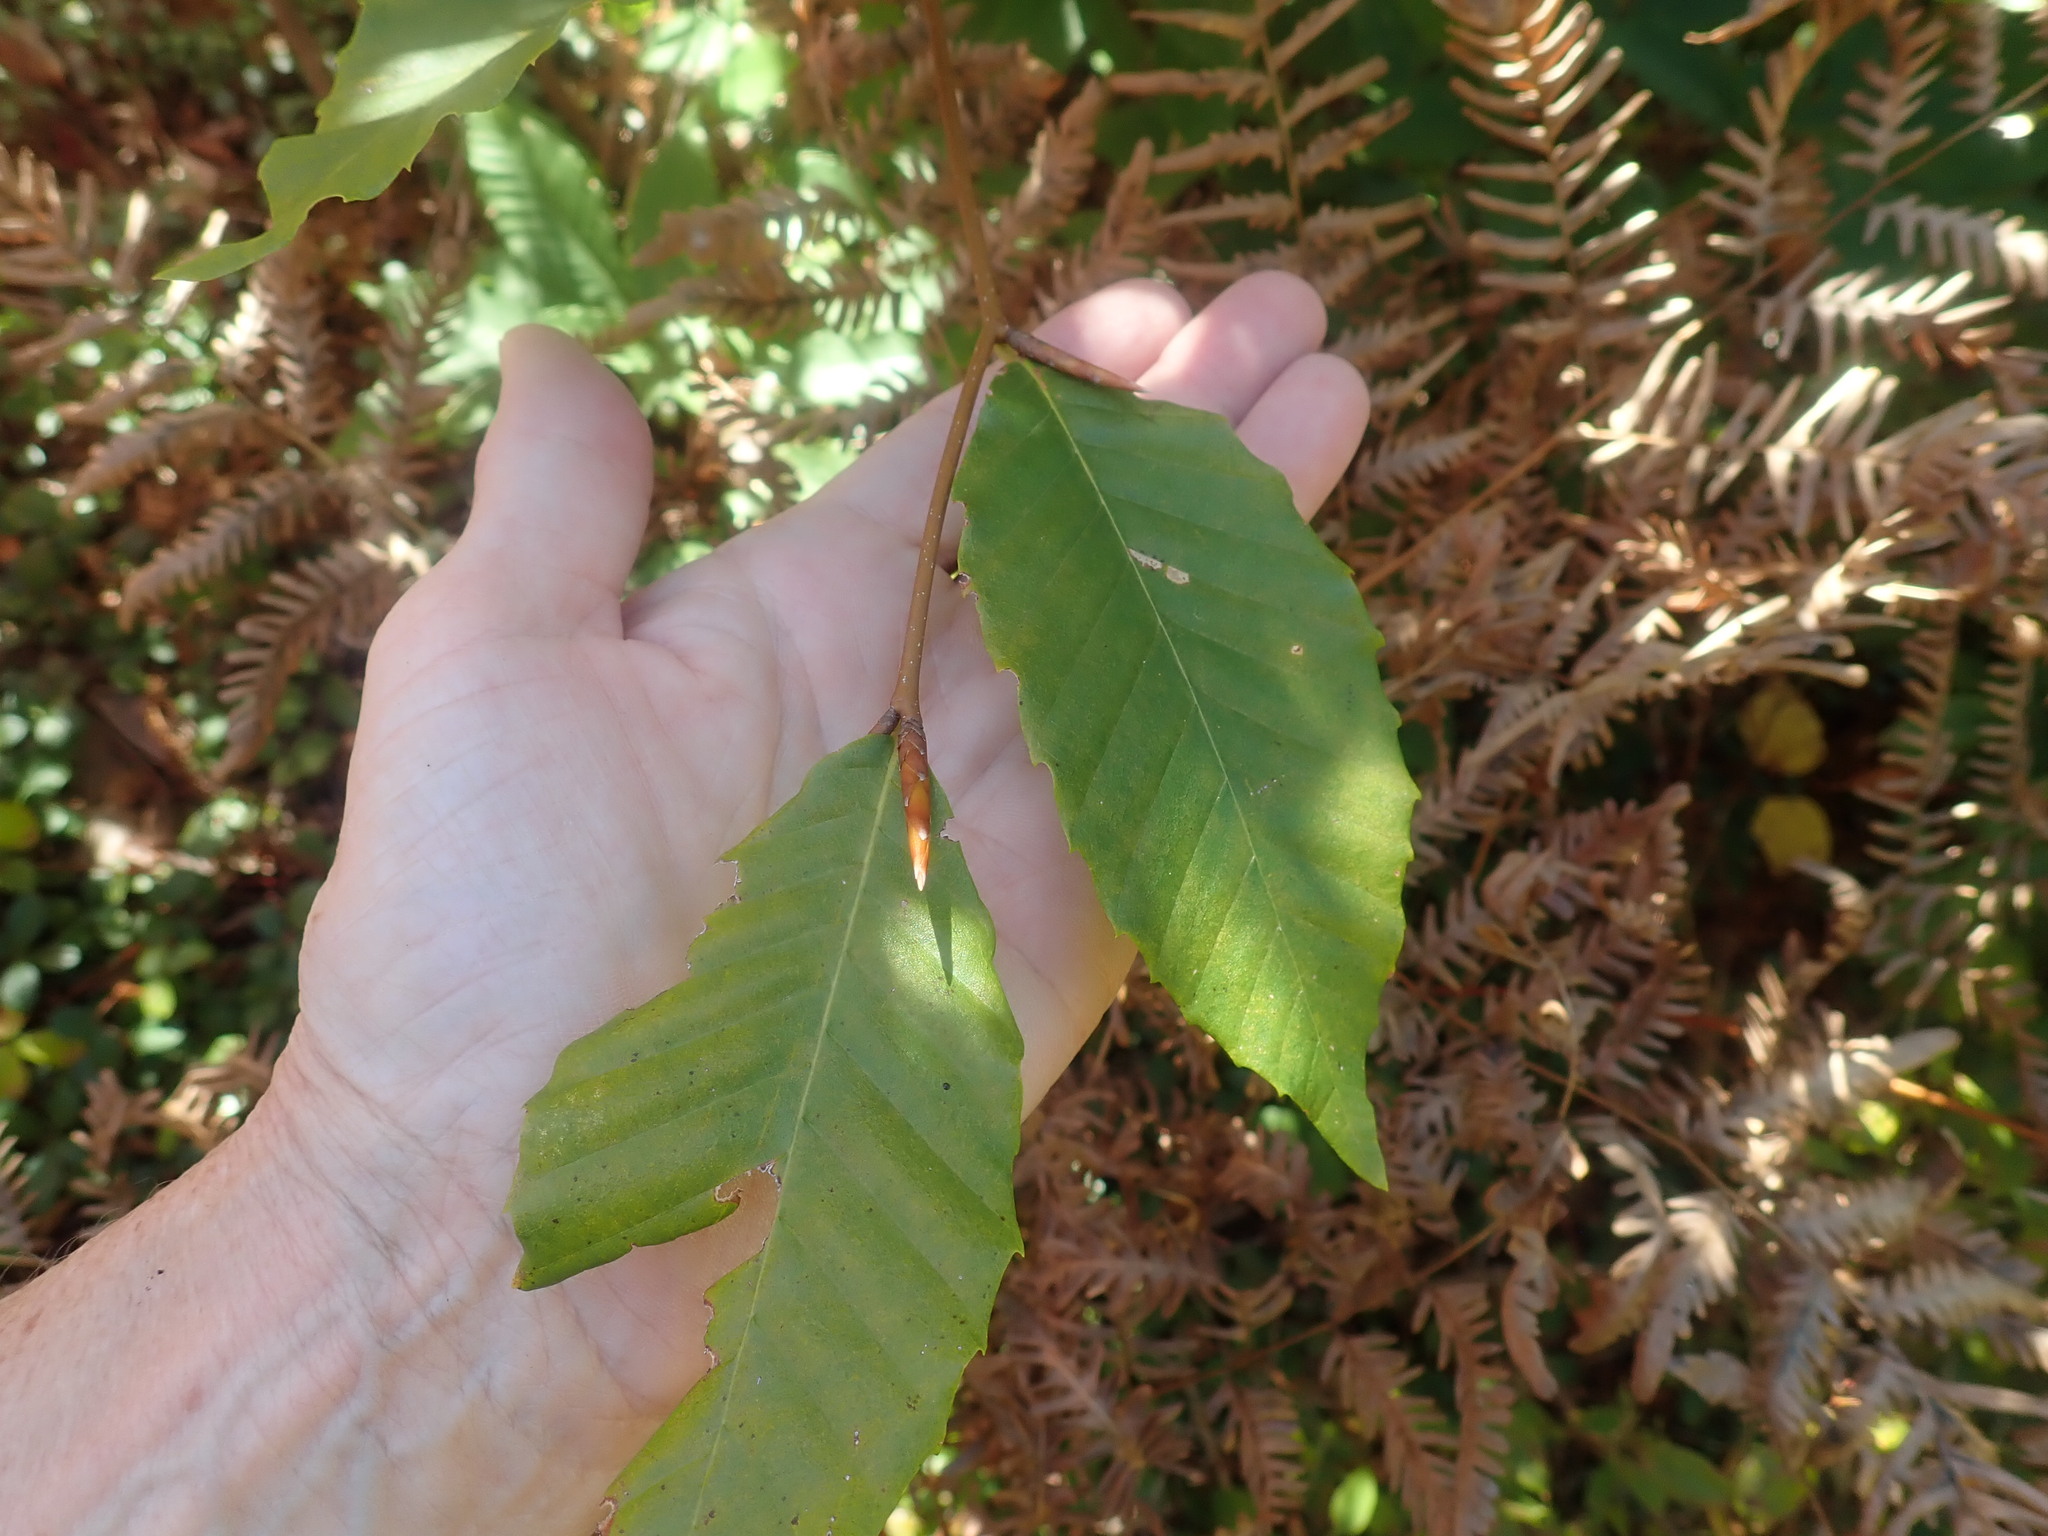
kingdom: Plantae
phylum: Tracheophyta
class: Magnoliopsida
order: Fagales
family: Fagaceae
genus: Fagus
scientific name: Fagus grandifolia
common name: American beech
